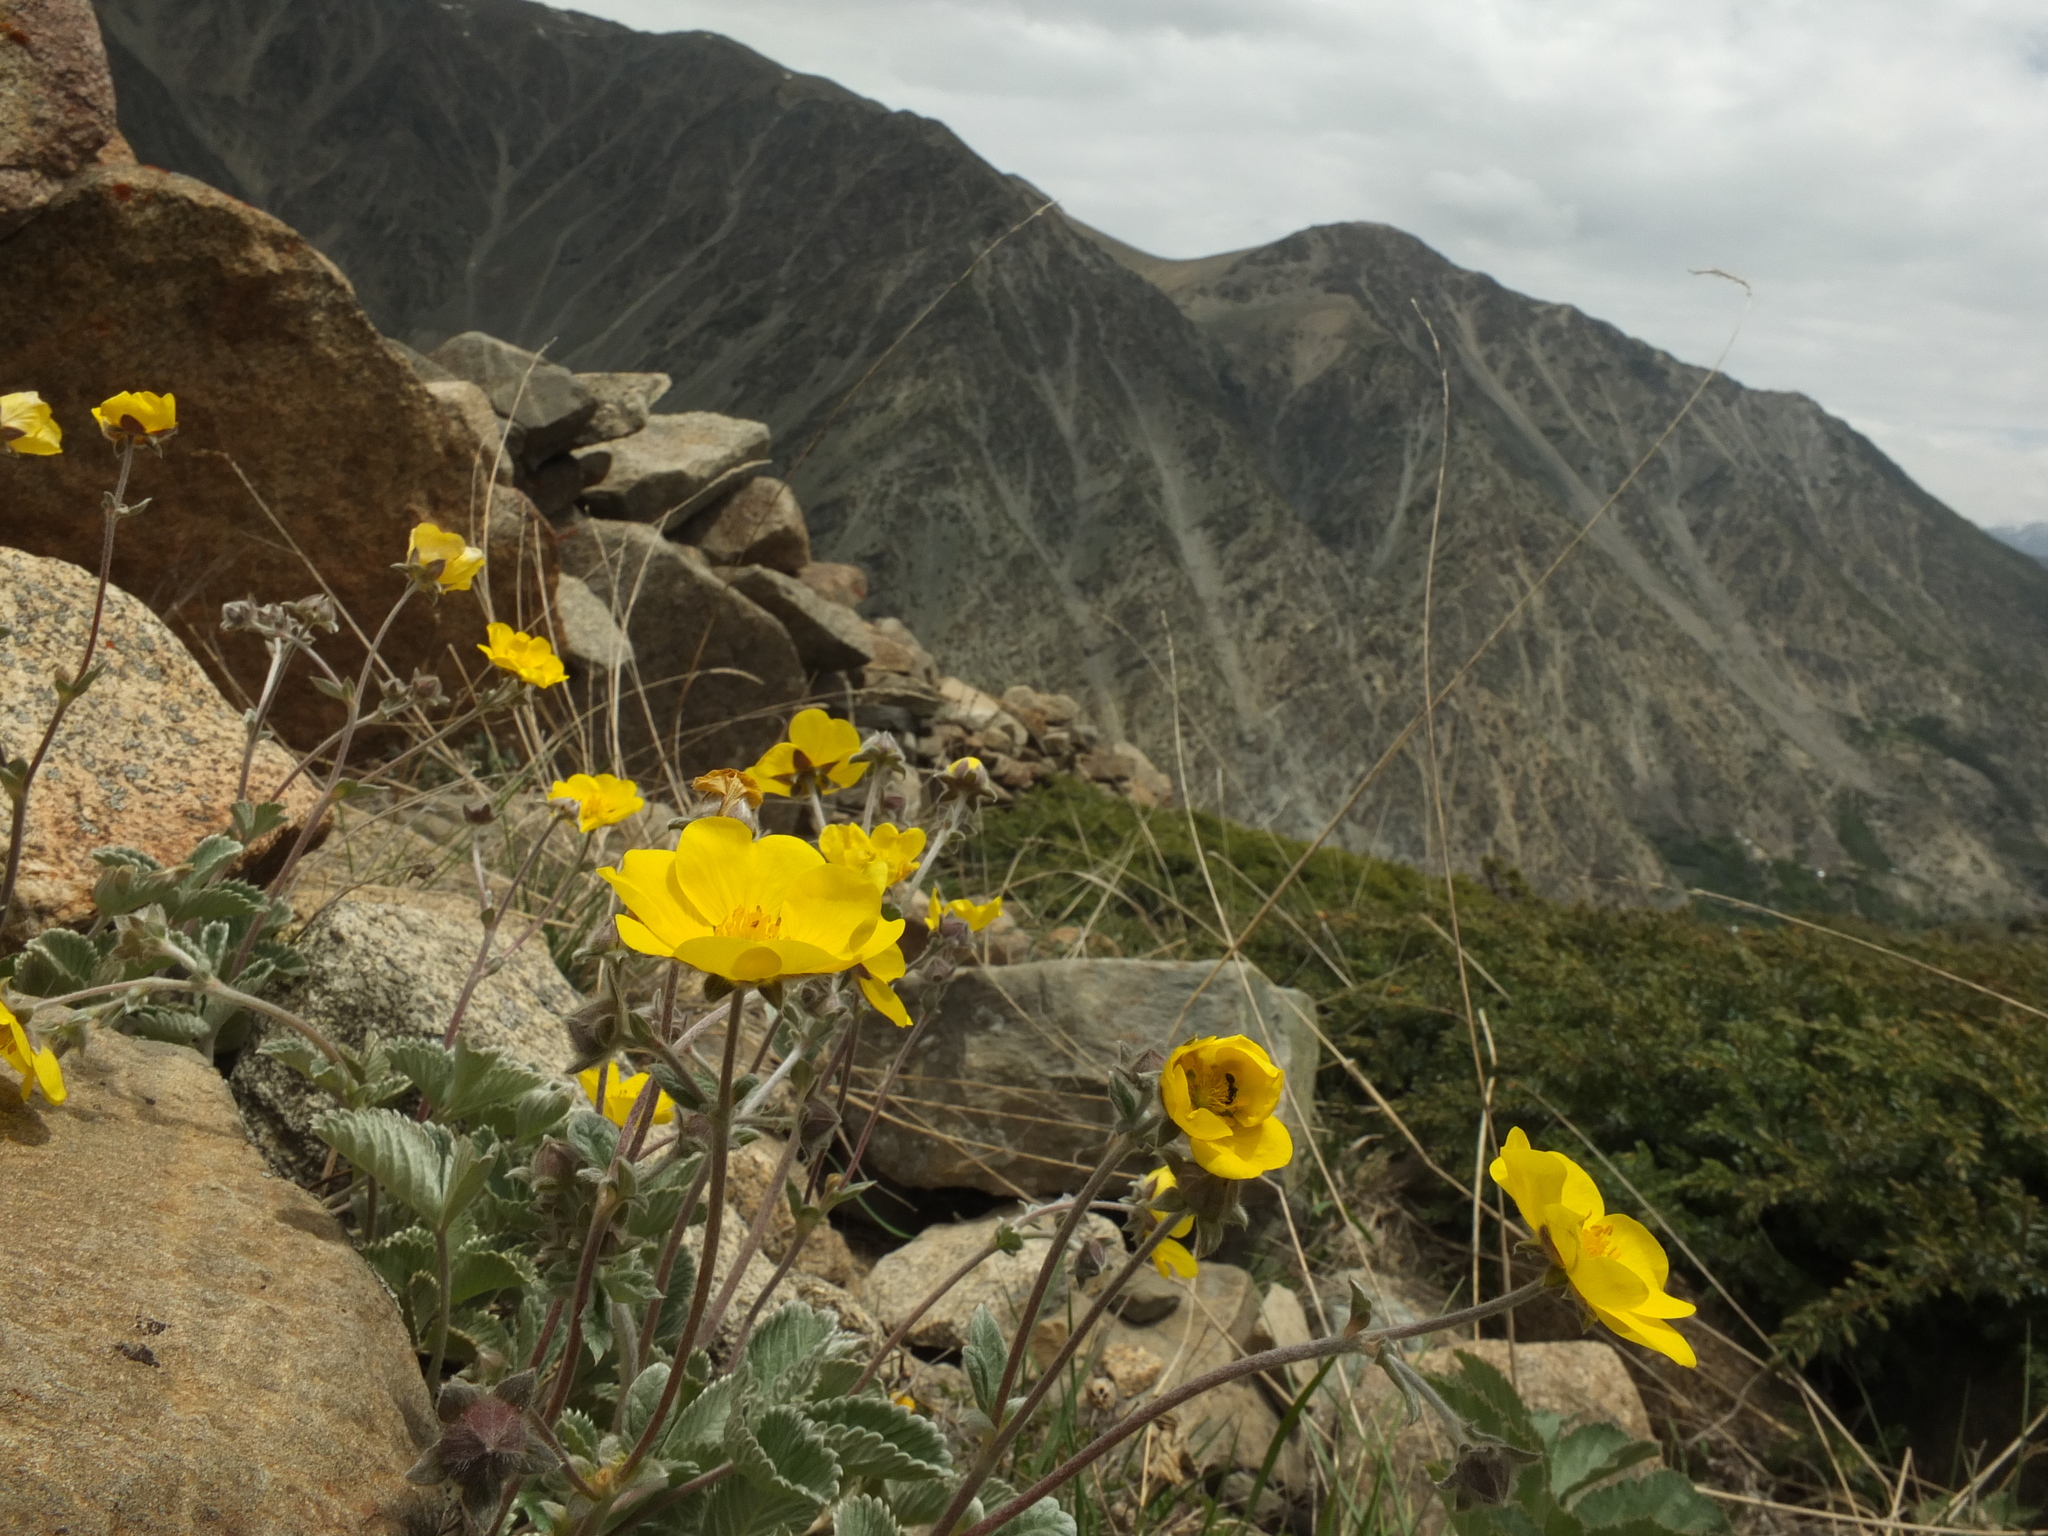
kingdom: Plantae
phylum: Tracheophyta
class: Magnoliopsida
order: Rosales
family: Rosaceae
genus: Potentilla
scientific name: Potentilla argyrophylla
